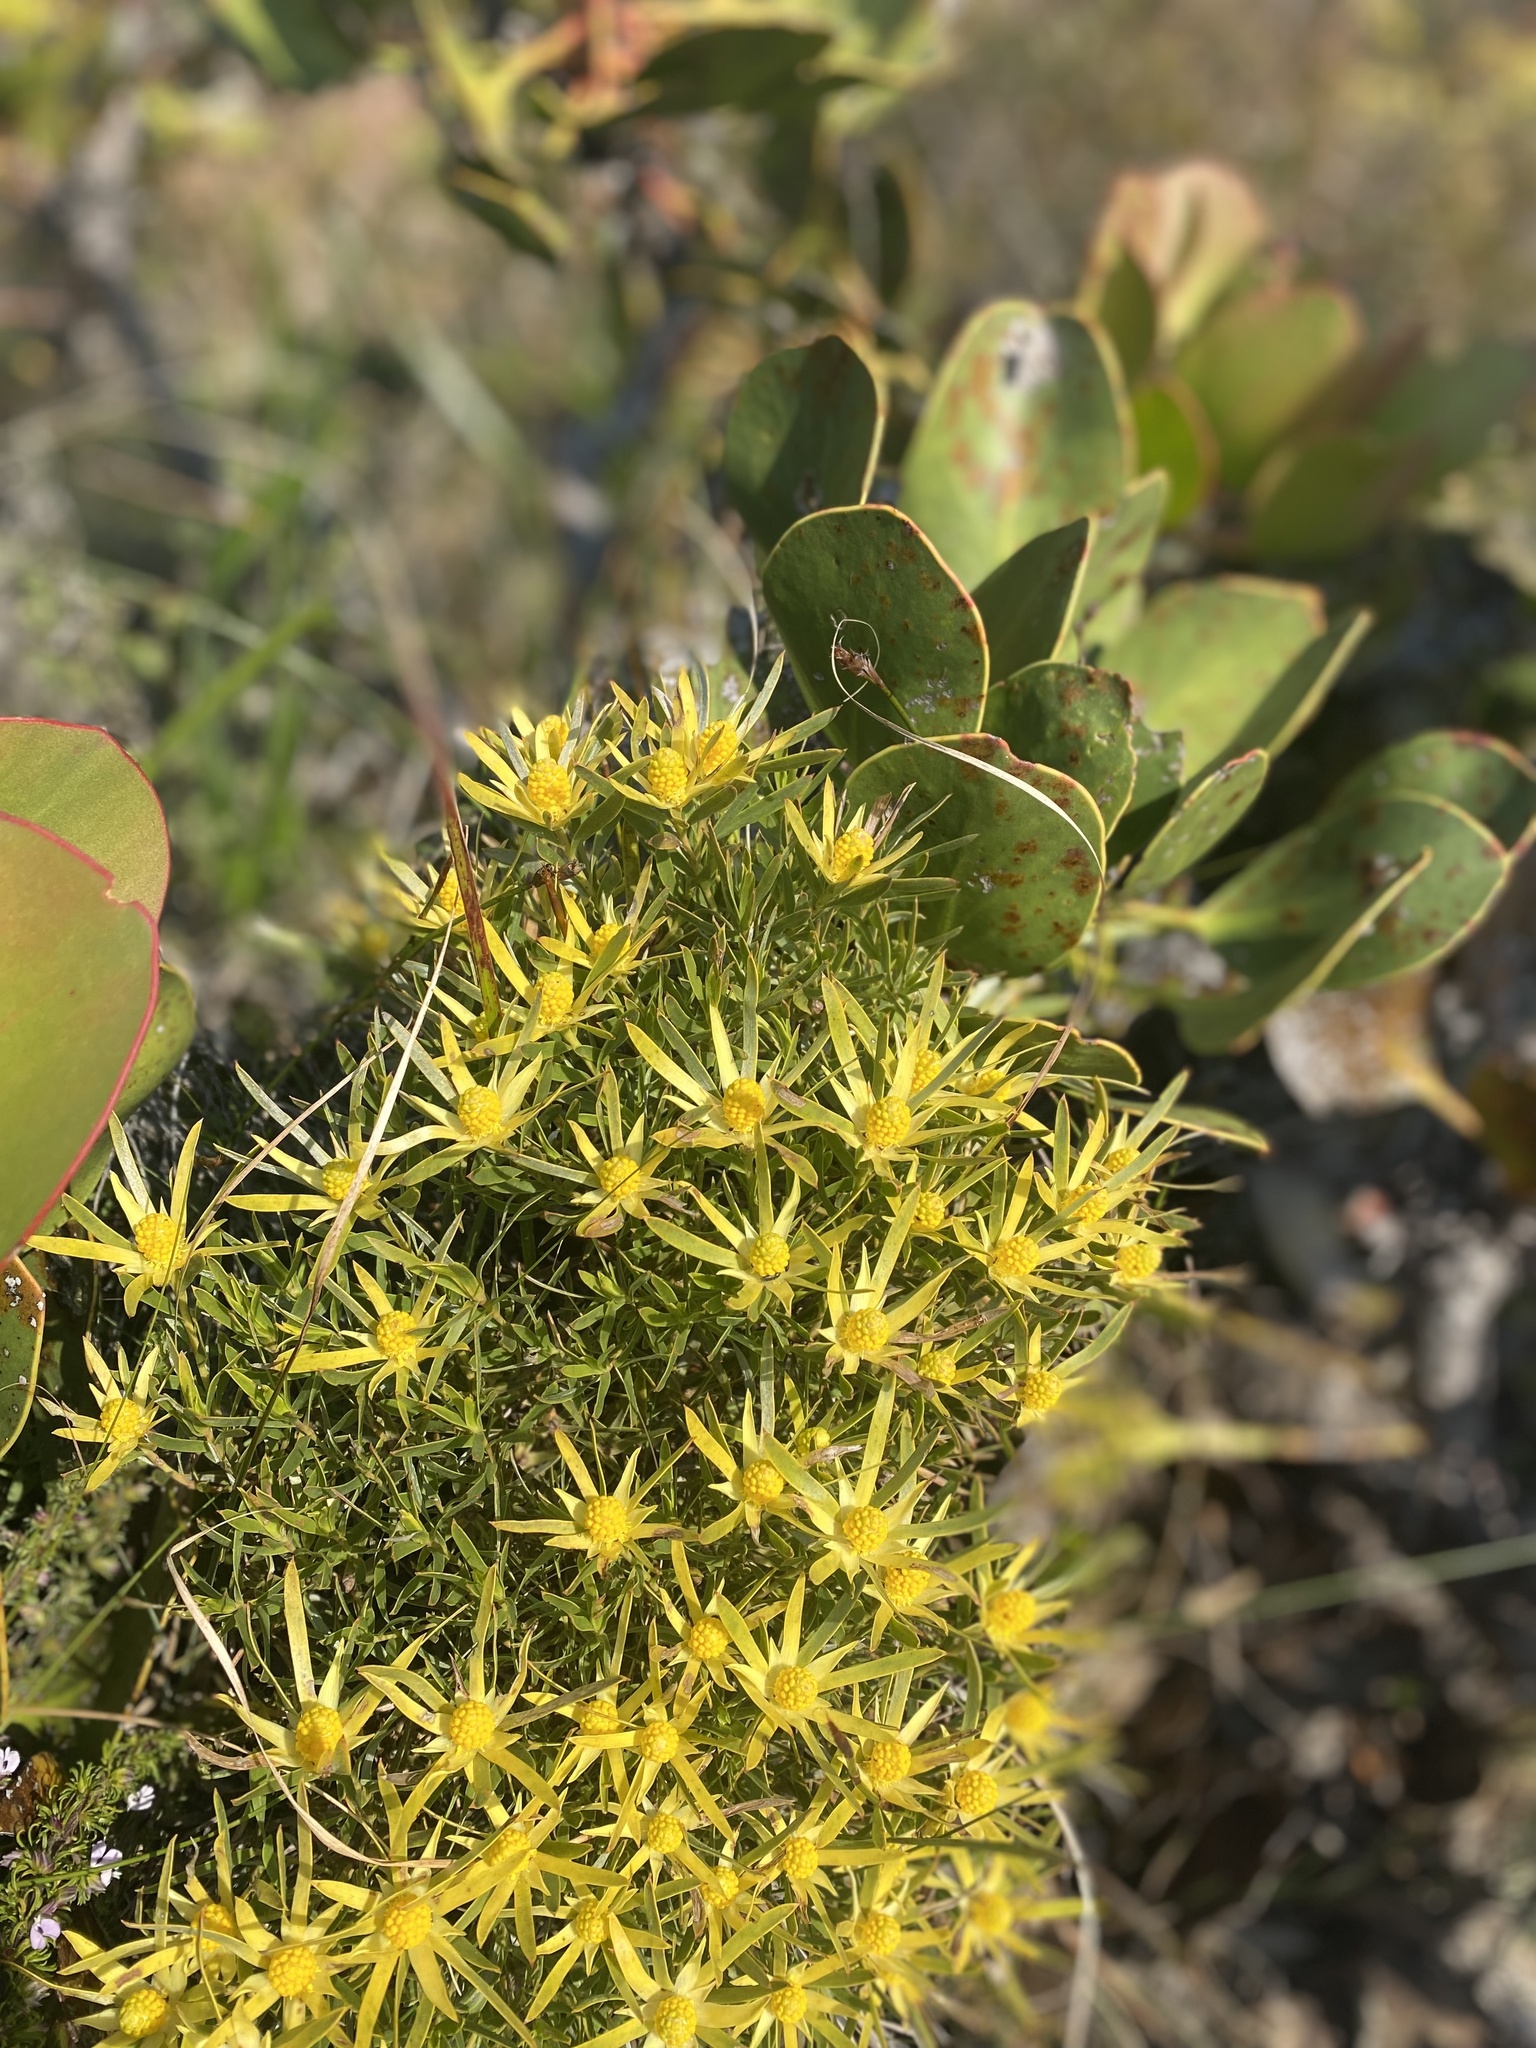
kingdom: Plantae
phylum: Tracheophyta
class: Magnoliopsida
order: Proteales
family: Proteaceae
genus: Leucadendron
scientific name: Leucadendron xanthoconus
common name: Sickle-leaf conebush
